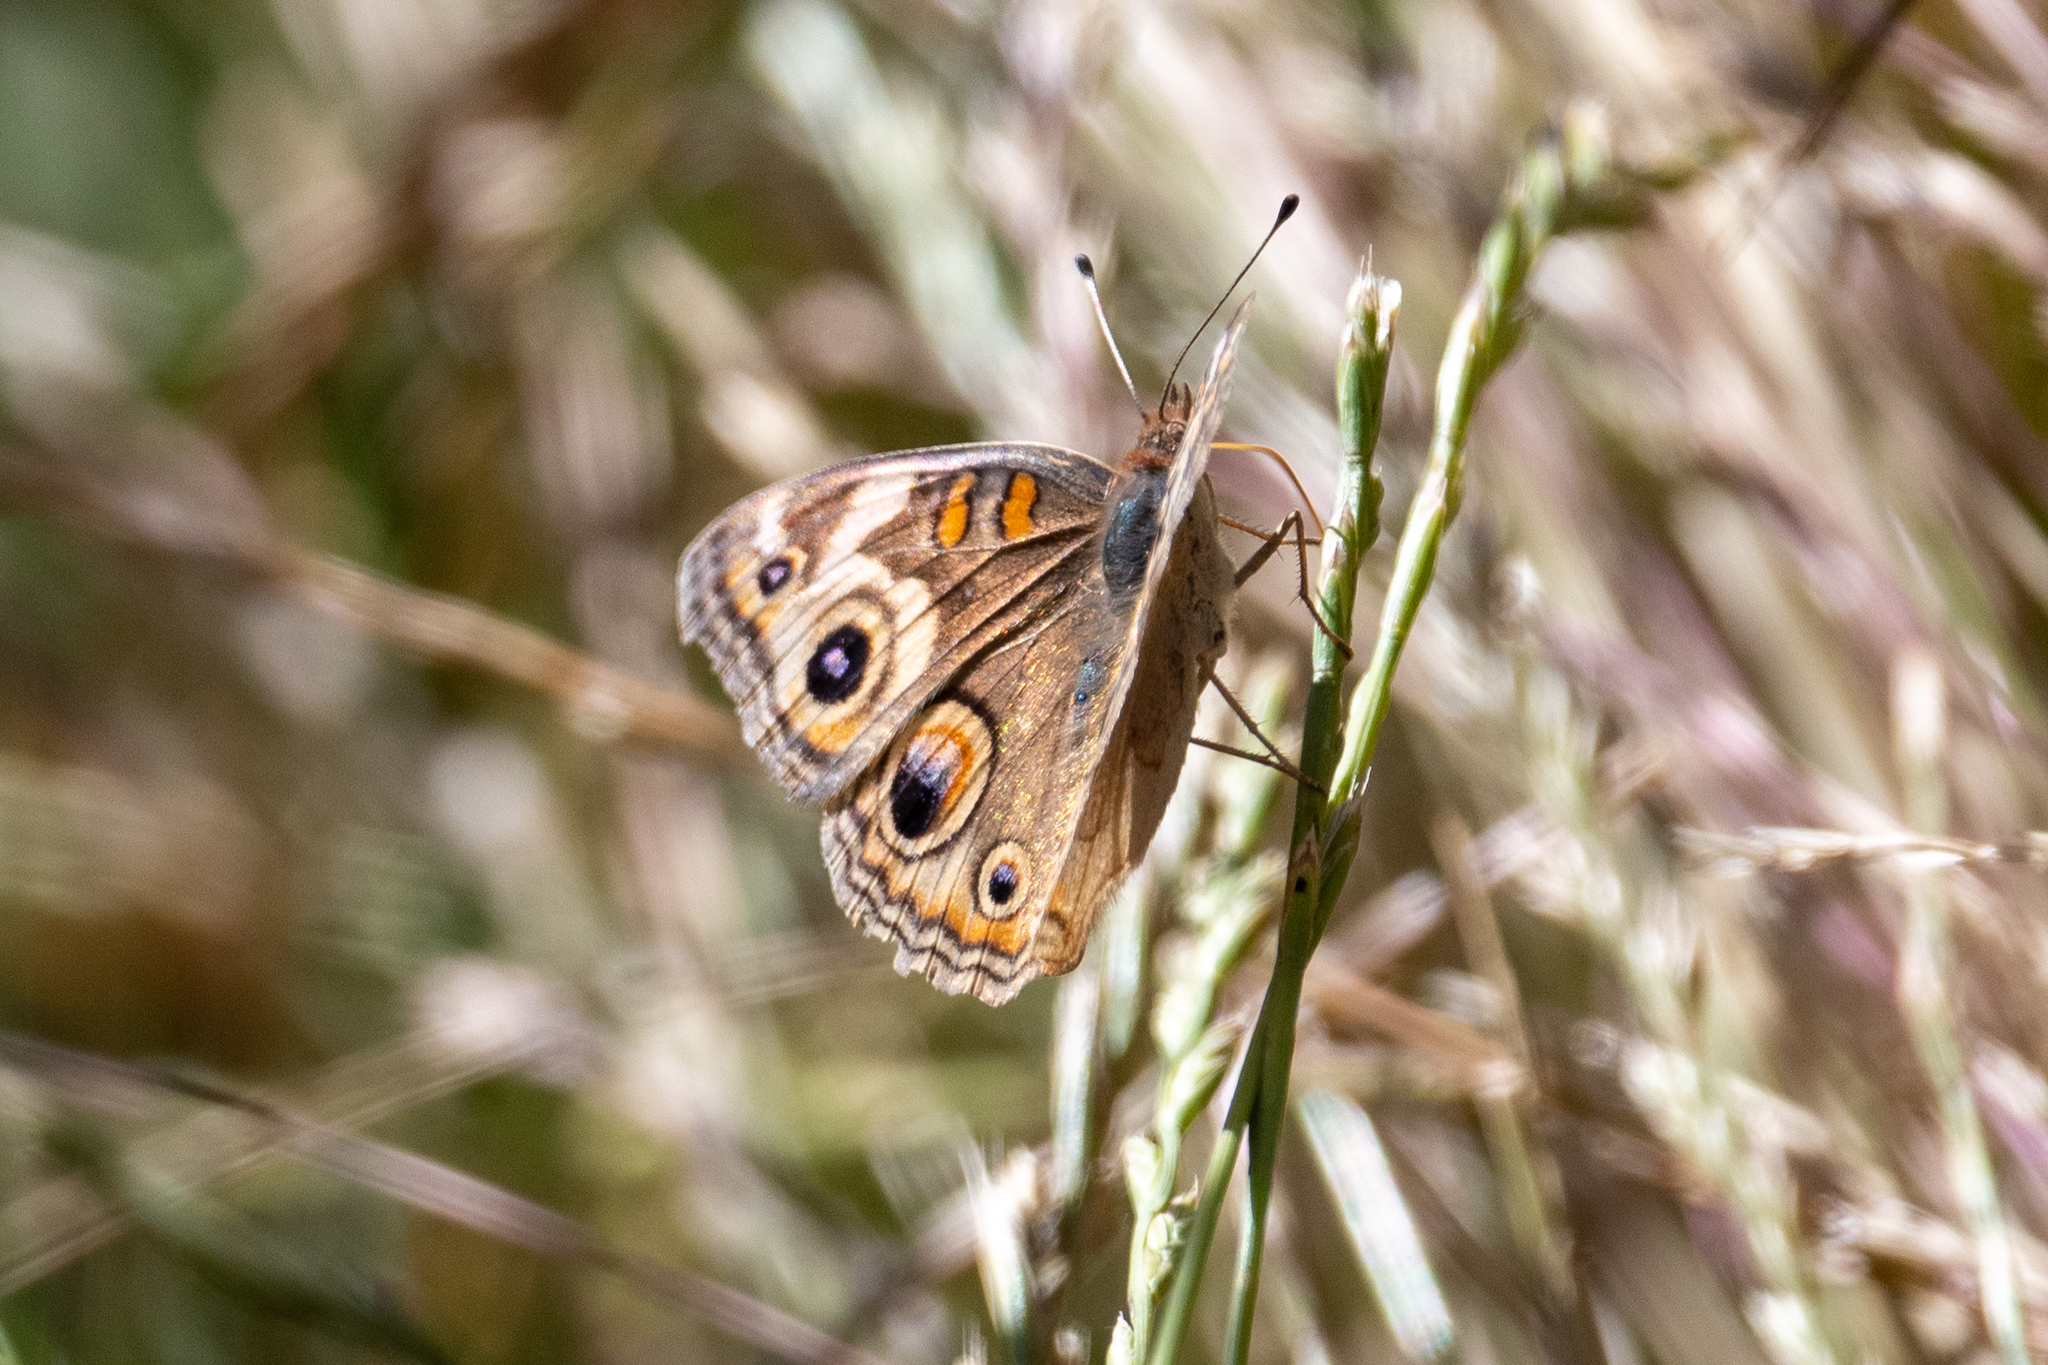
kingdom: Animalia
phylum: Arthropoda
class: Insecta
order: Lepidoptera
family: Nymphalidae
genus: Junonia
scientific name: Junonia grisea
